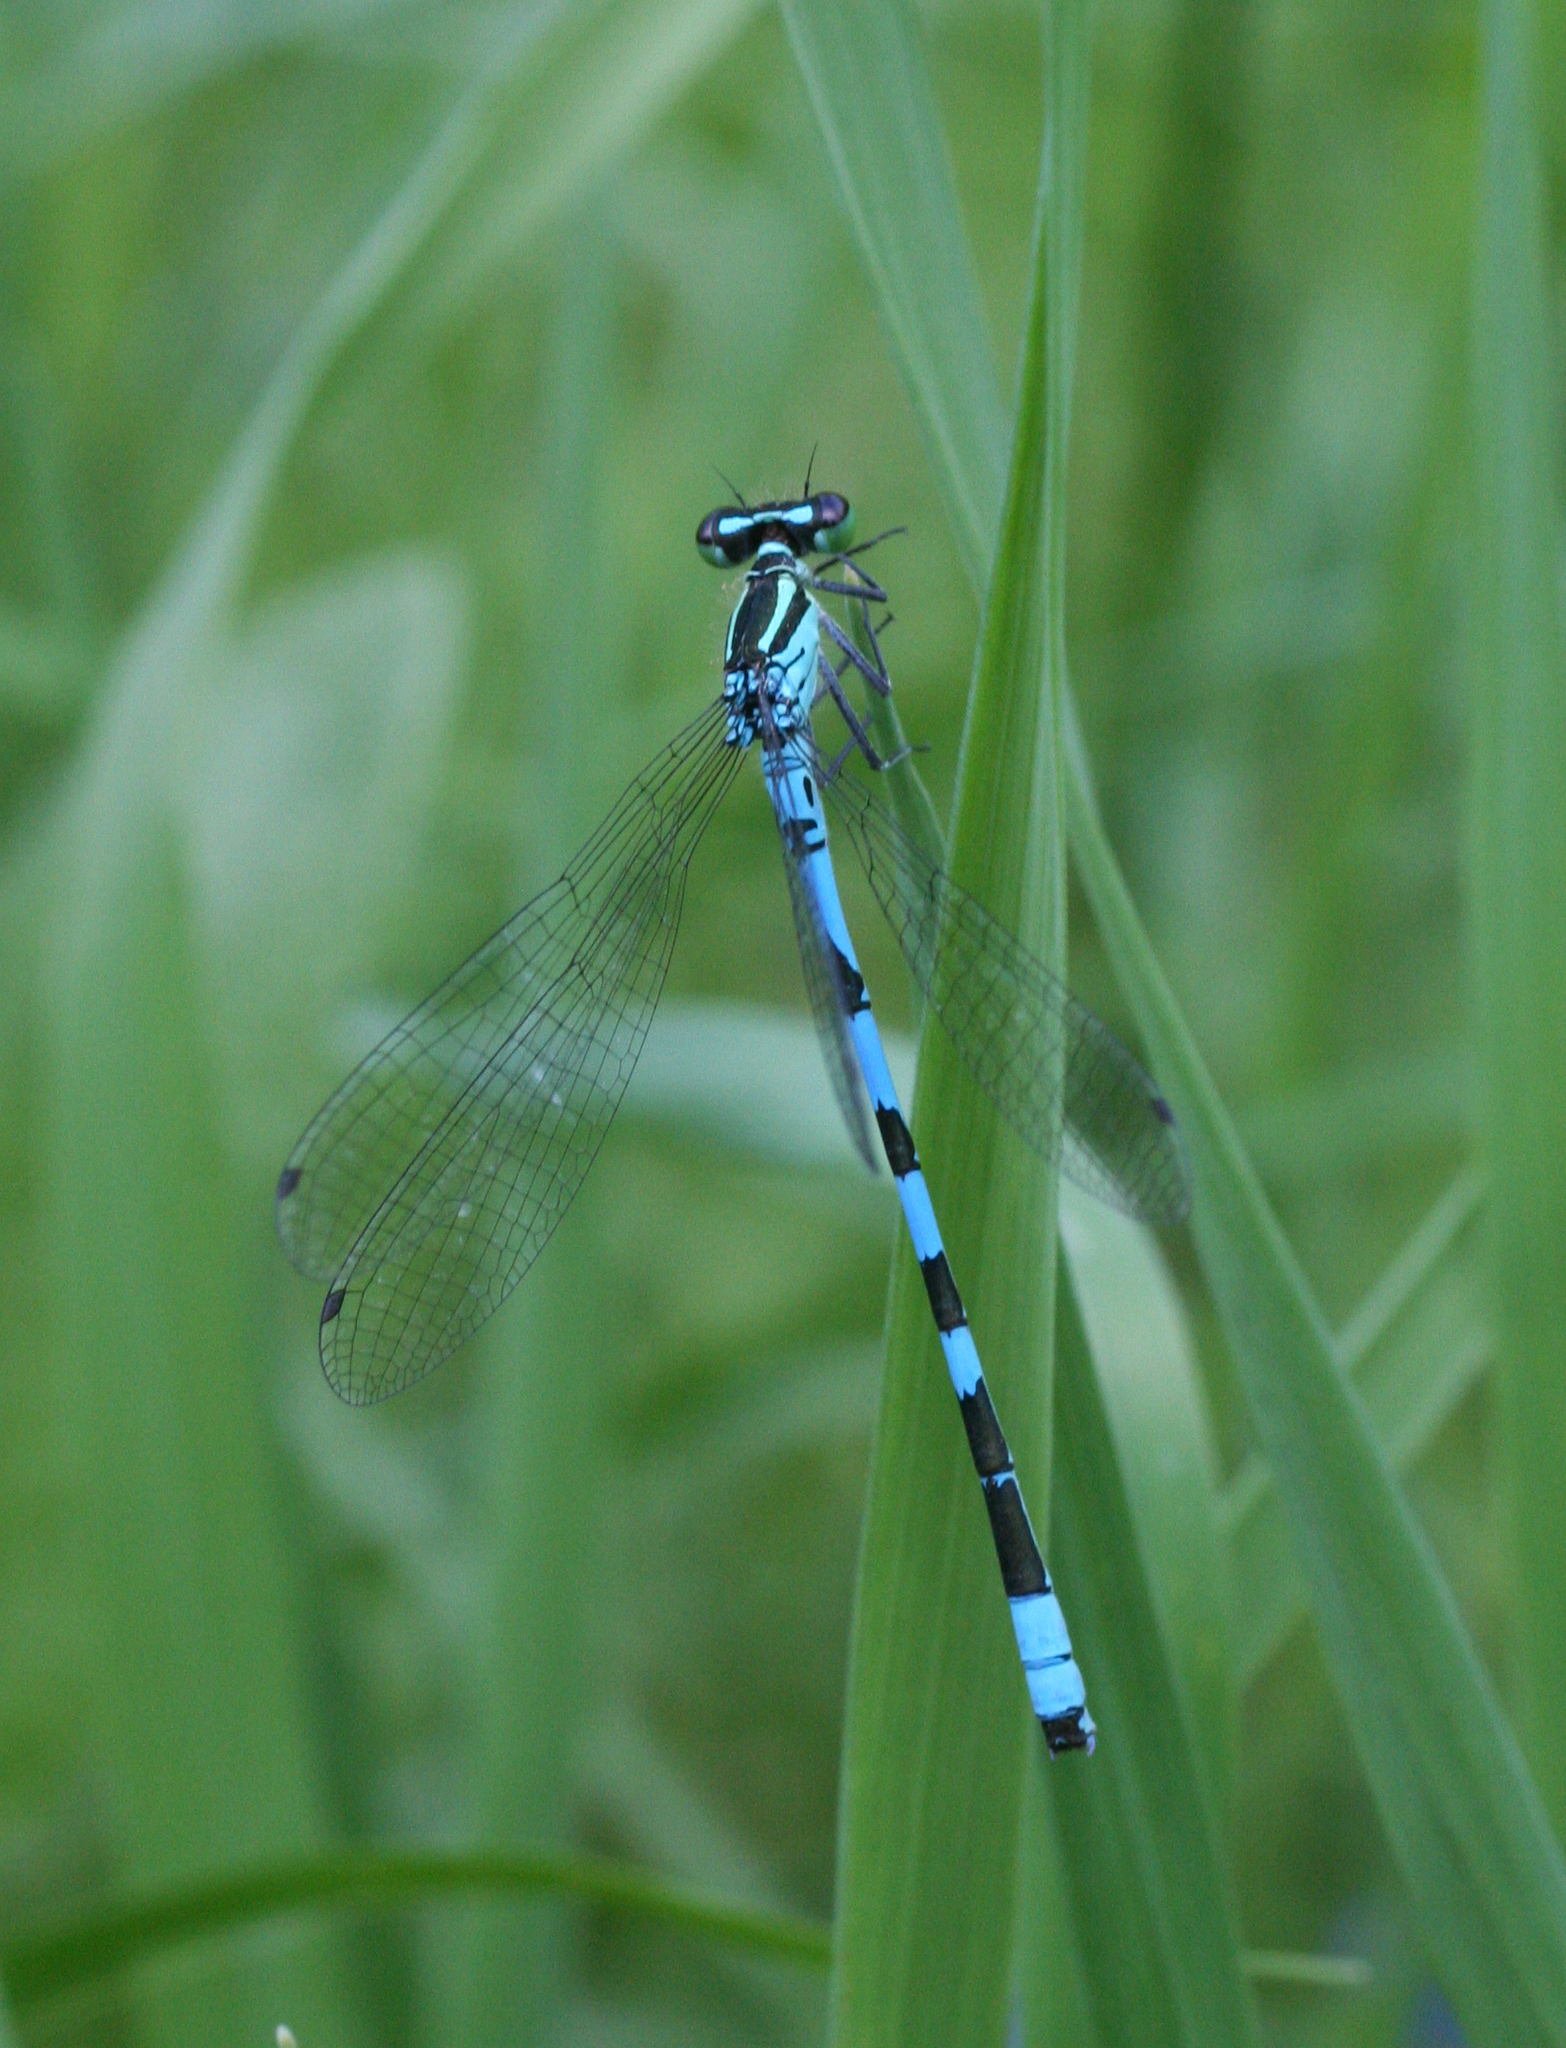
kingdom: Animalia
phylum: Arthropoda
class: Insecta
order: Odonata
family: Coenagrionidae
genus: Coenagrion
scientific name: Coenagrion hastulatum
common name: Spearhead bluet
